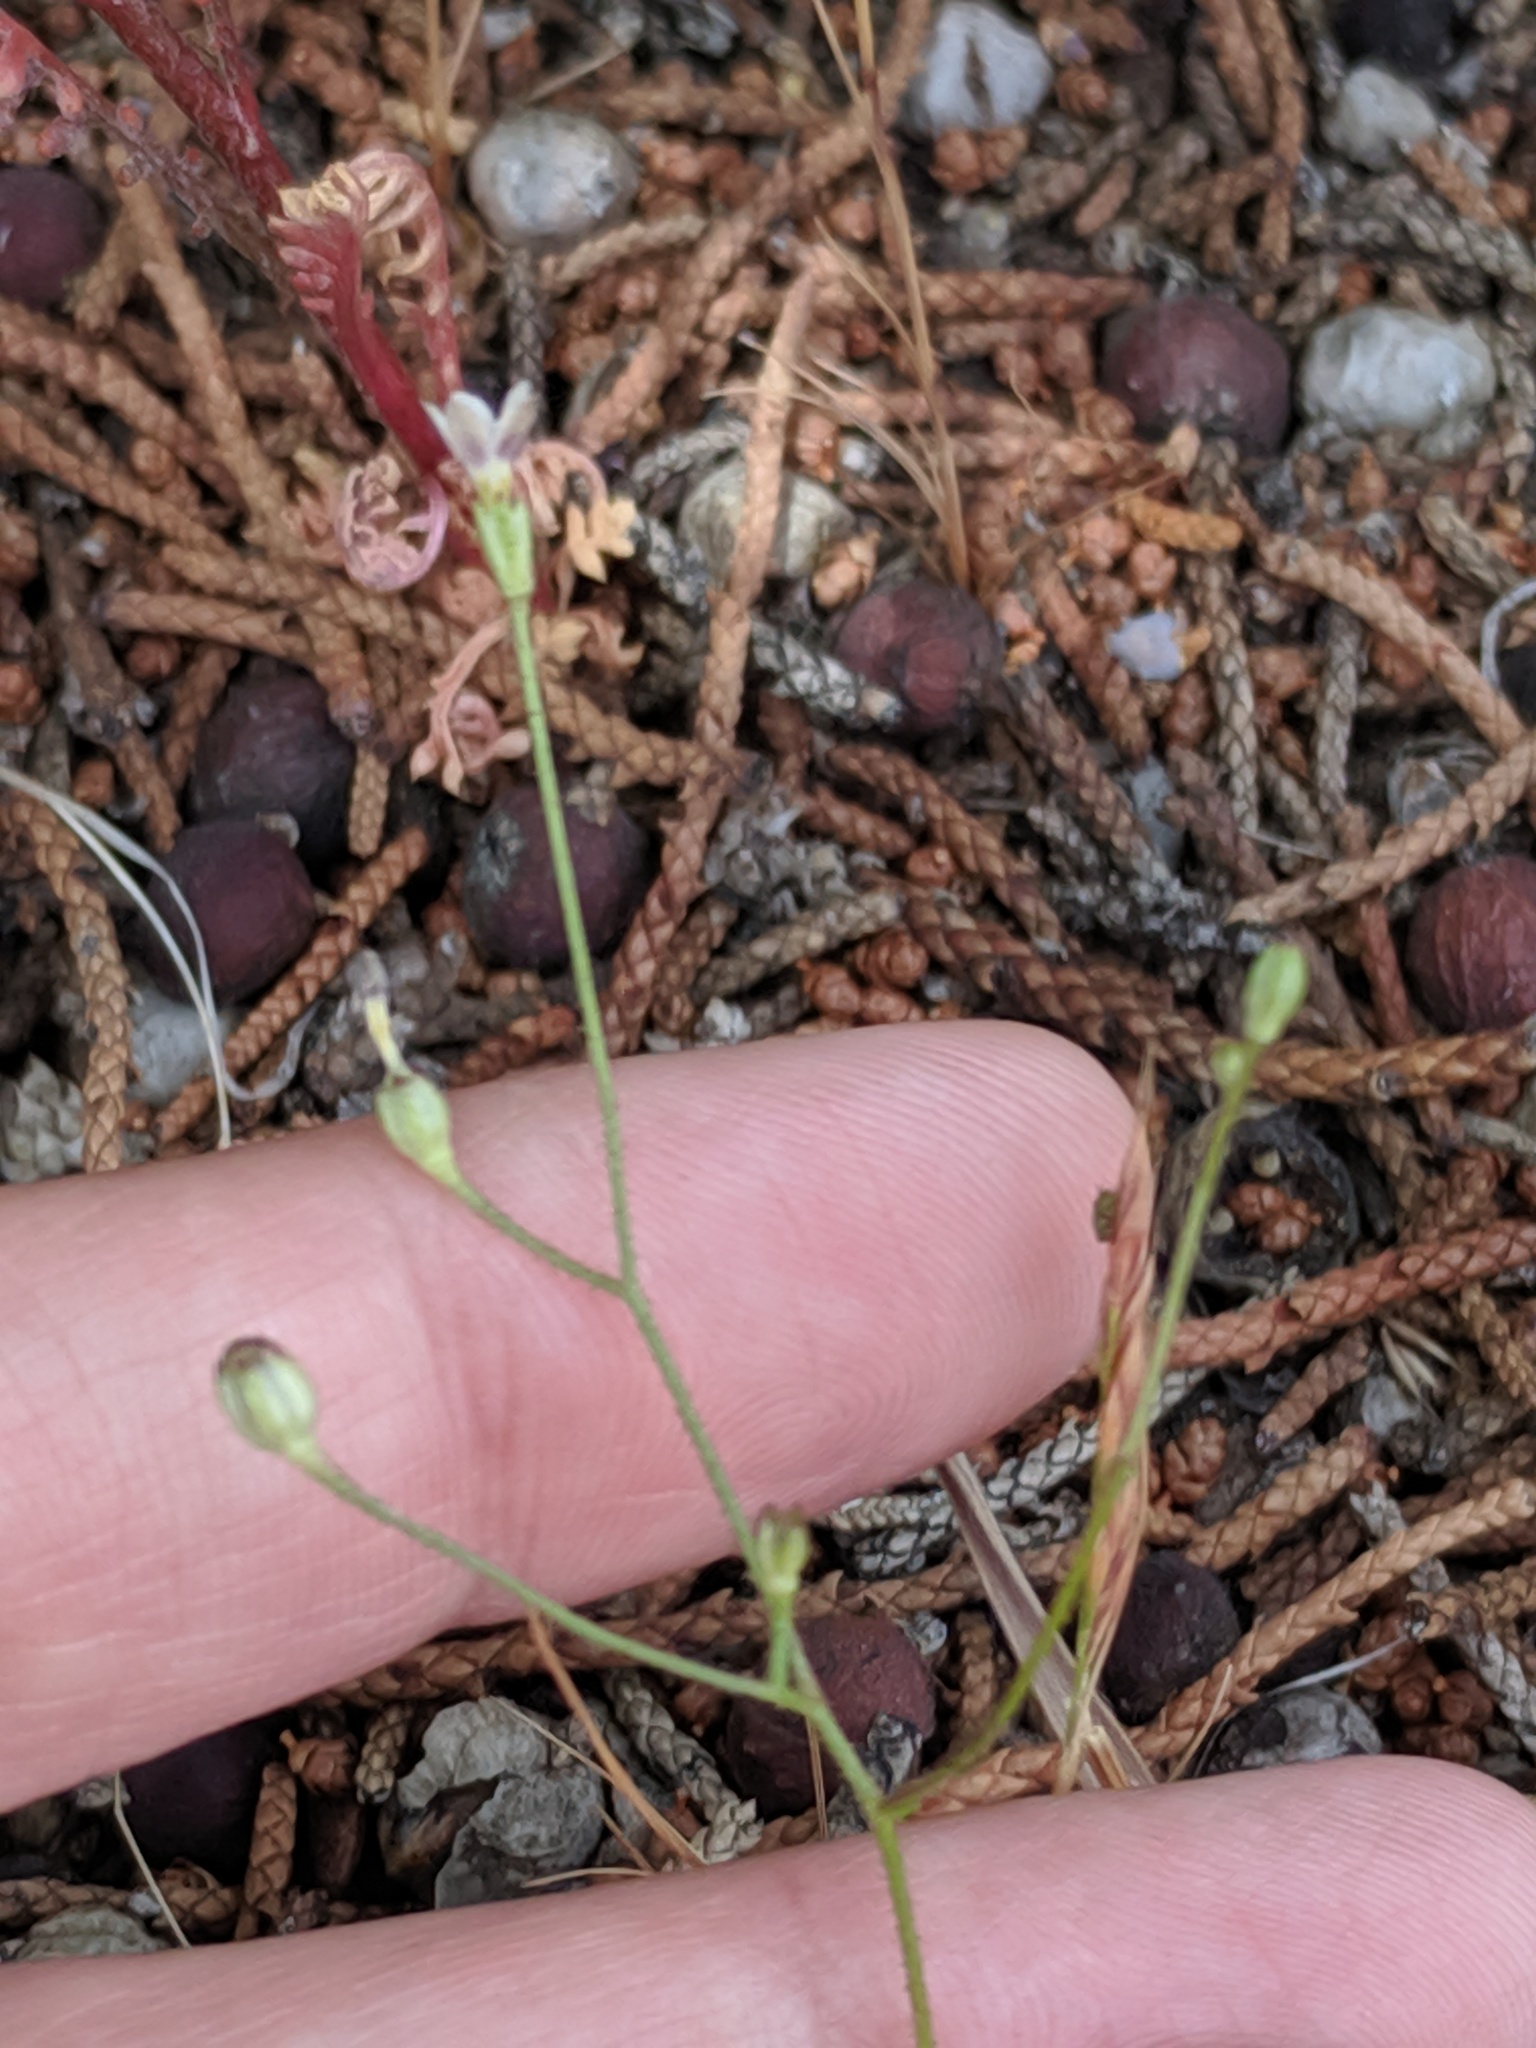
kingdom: Plantae
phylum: Tracheophyta
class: Magnoliopsida
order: Ericales
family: Polemoniaceae
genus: Gilia
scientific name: Gilia clokeyi
